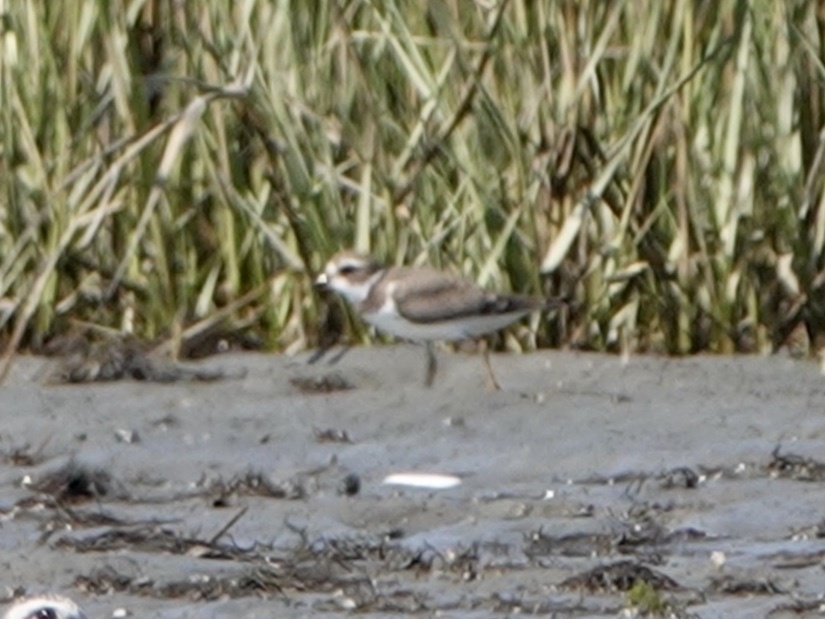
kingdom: Animalia
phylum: Chordata
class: Aves
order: Charadriiformes
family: Charadriidae
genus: Charadrius
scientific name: Charadrius semipalmatus
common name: Semipalmated plover
